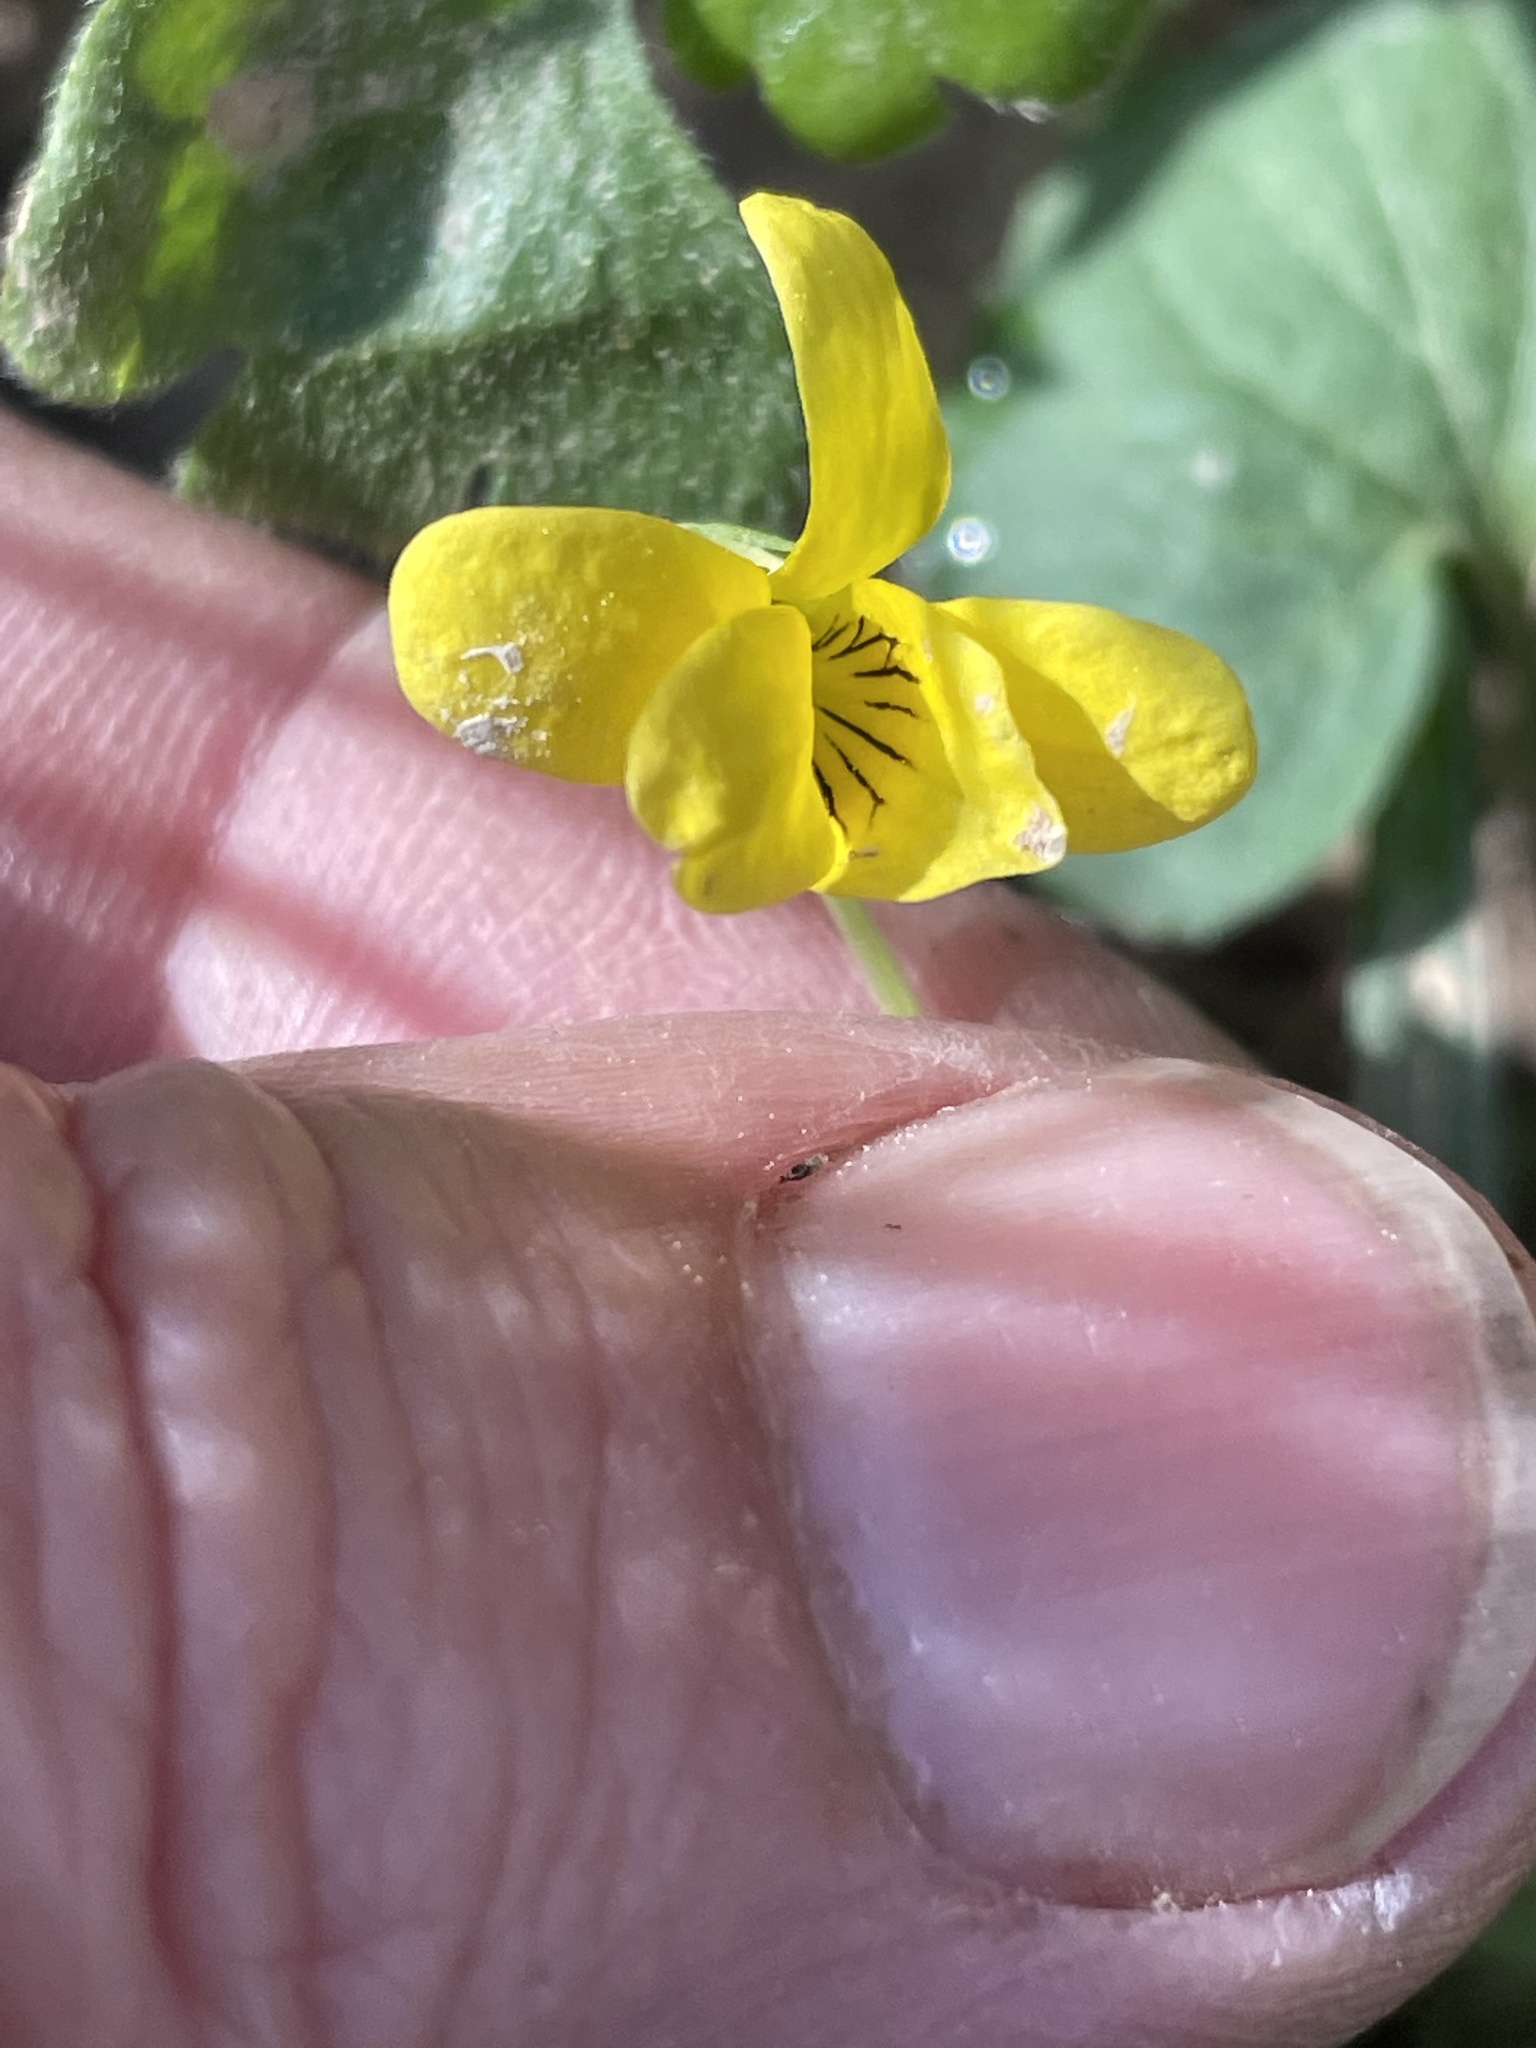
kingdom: Plantae
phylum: Tracheophyta
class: Magnoliopsida
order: Malpighiales
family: Violaceae
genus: Viola
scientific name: Viola eriocarpa
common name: Smooth yellow violet
